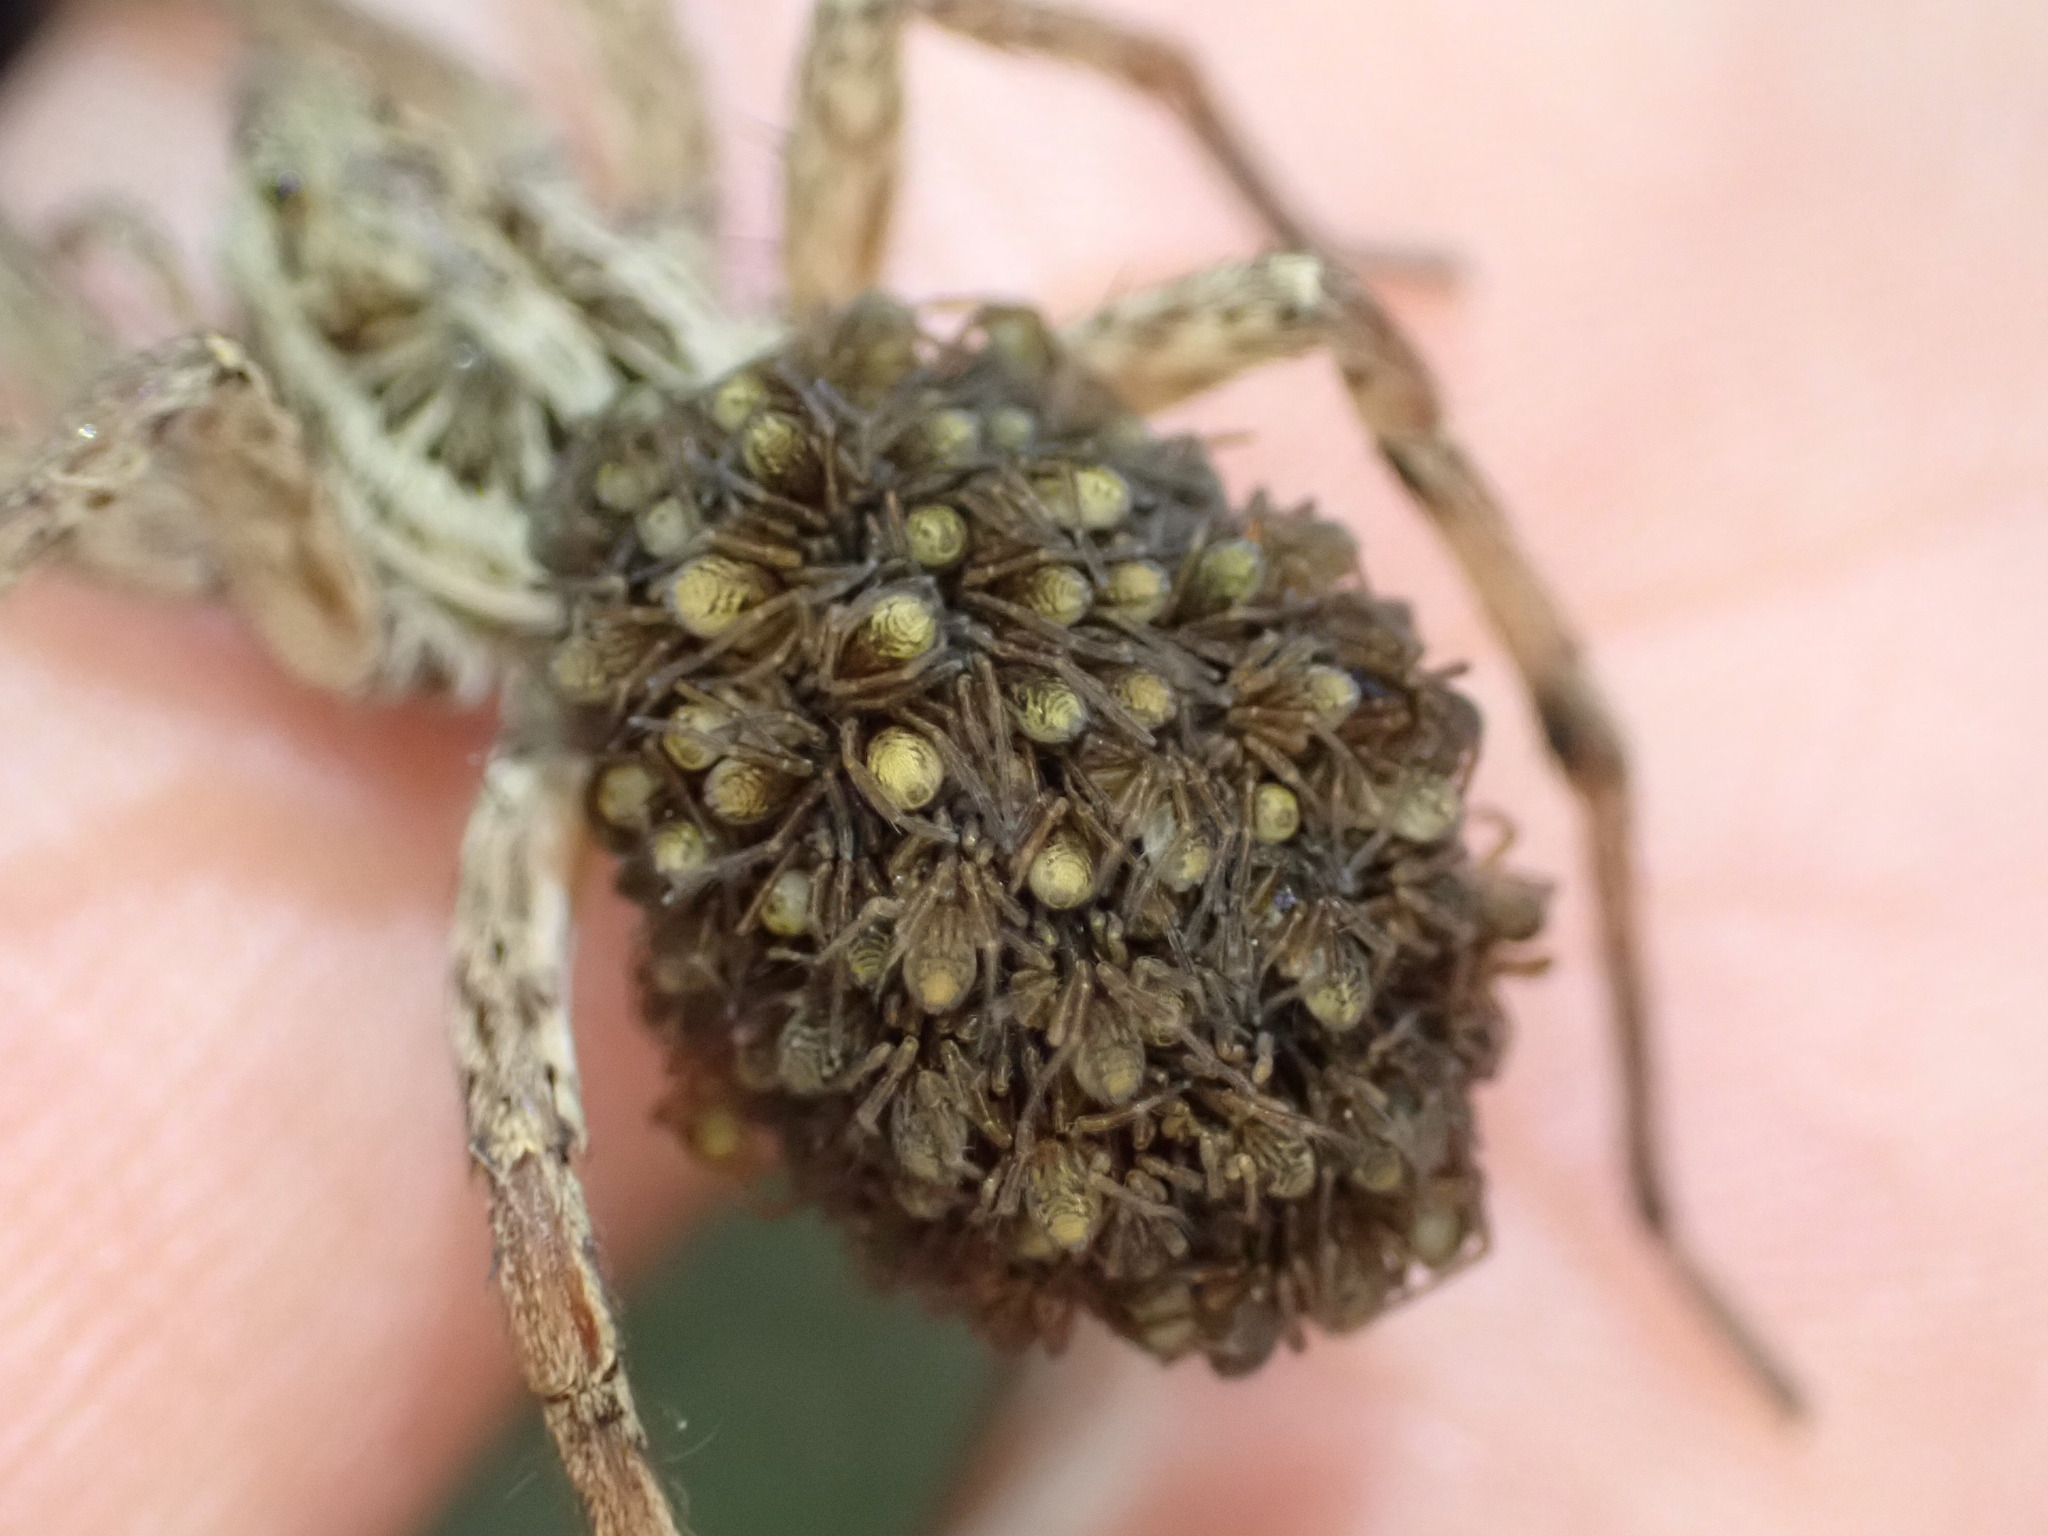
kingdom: Animalia
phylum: Arthropoda
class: Arachnida
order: Araneae
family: Lycosidae
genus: Hogna
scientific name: Hogna radiata
